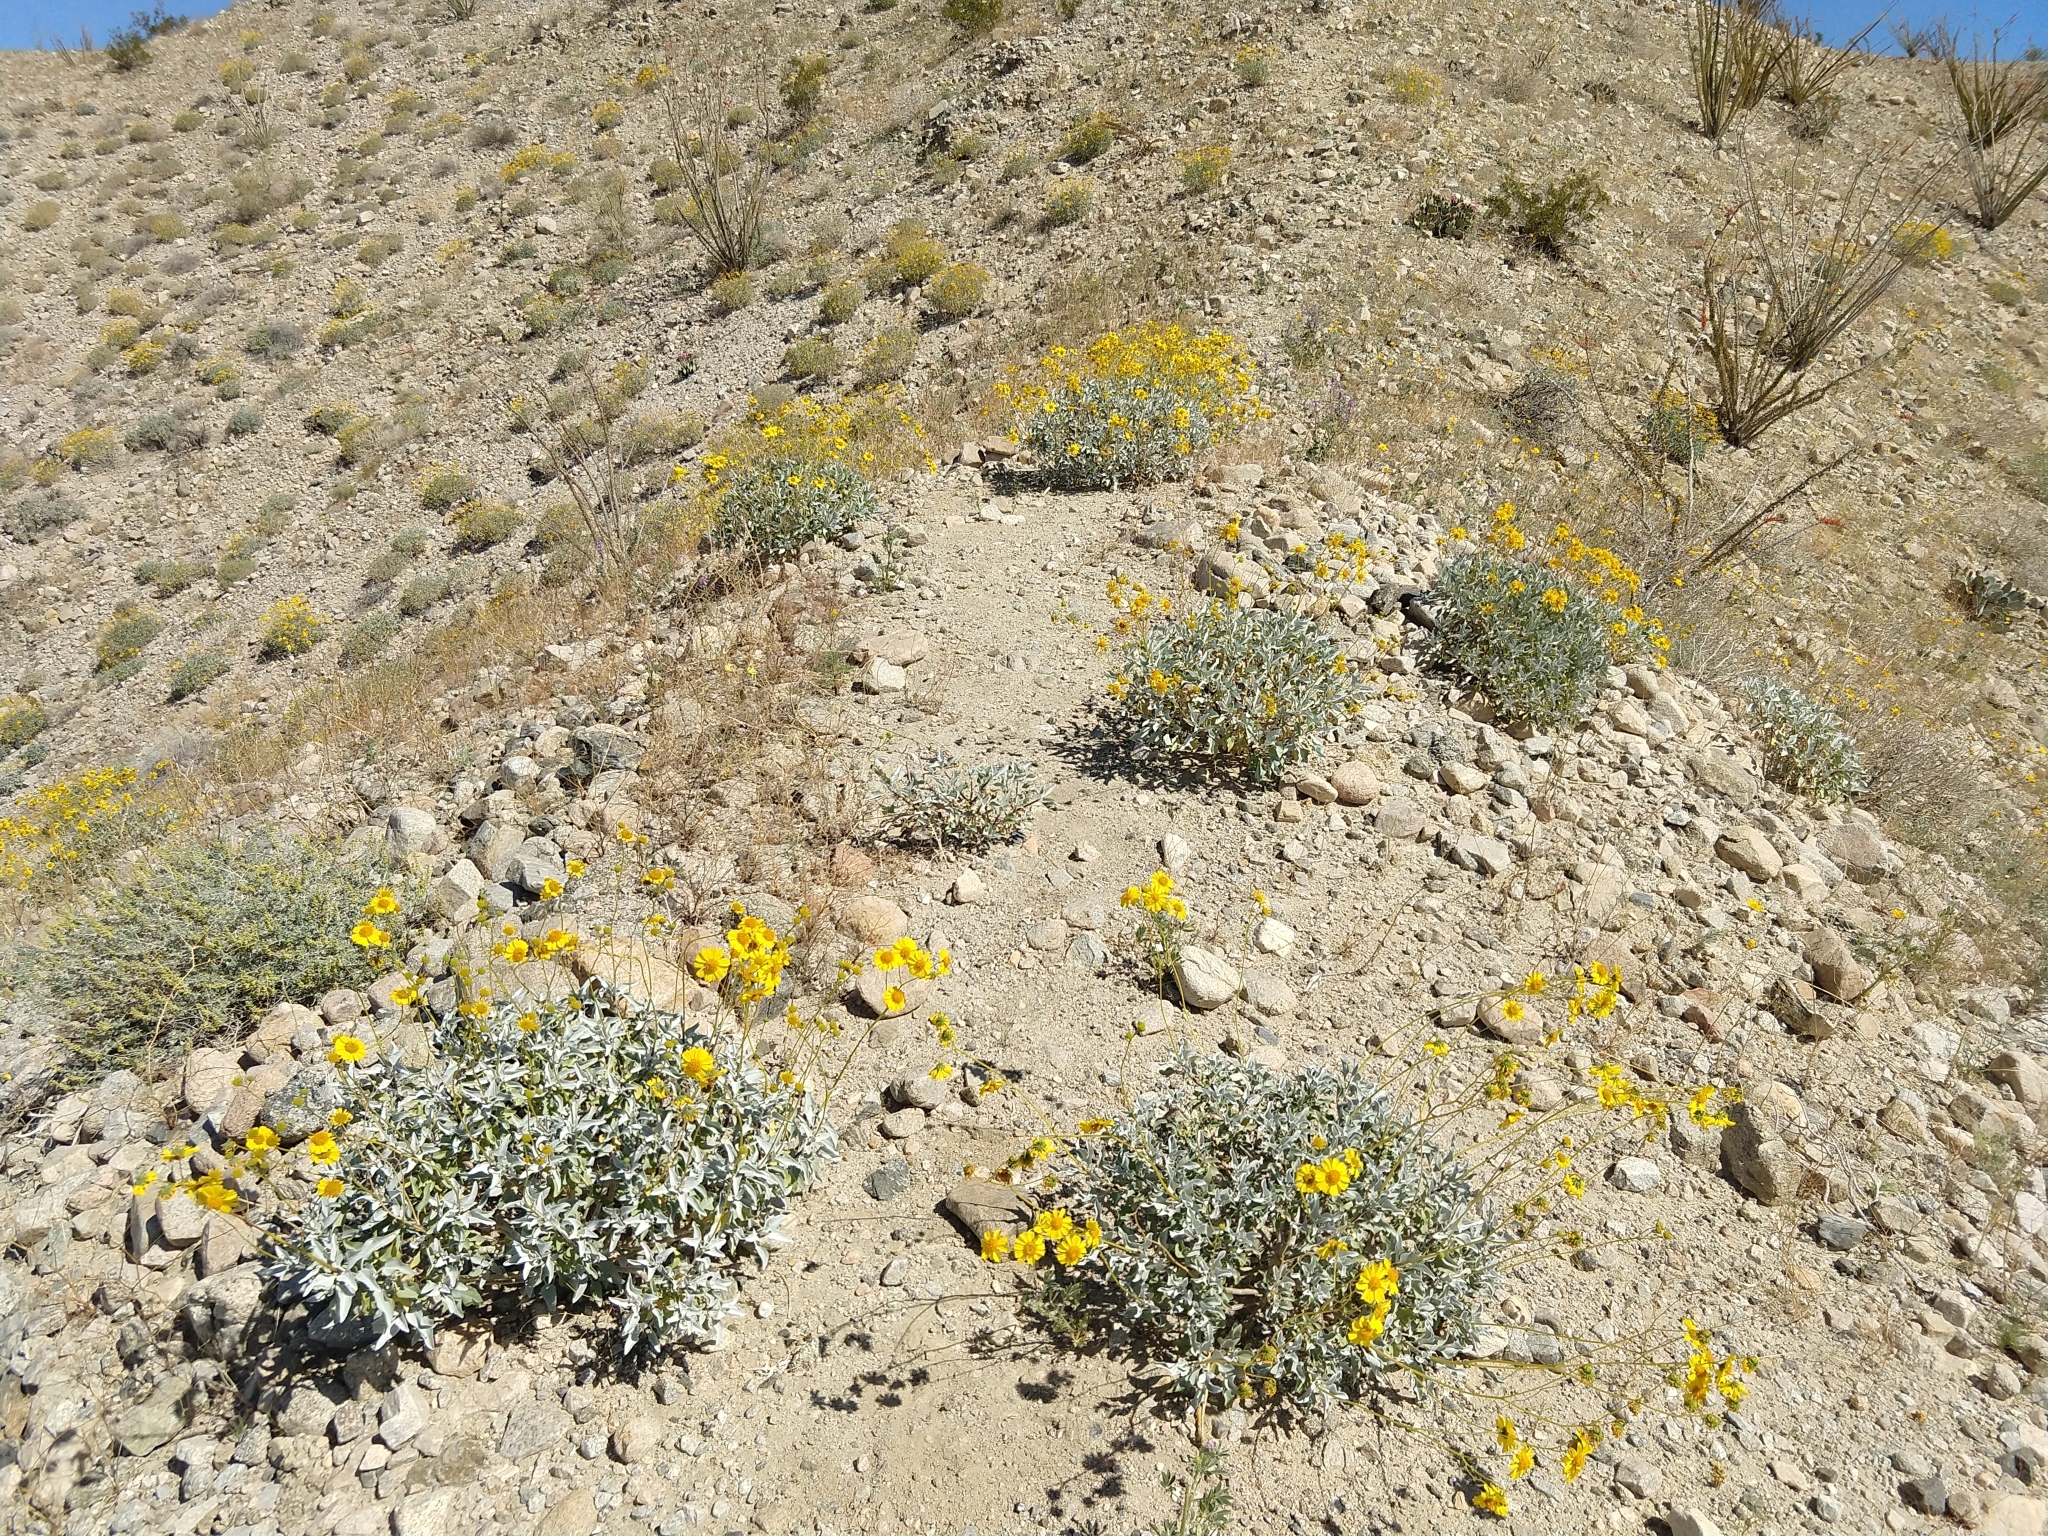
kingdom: Plantae
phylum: Tracheophyta
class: Magnoliopsida
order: Asterales
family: Asteraceae
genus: Encelia
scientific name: Encelia farinosa
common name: Brittlebush
